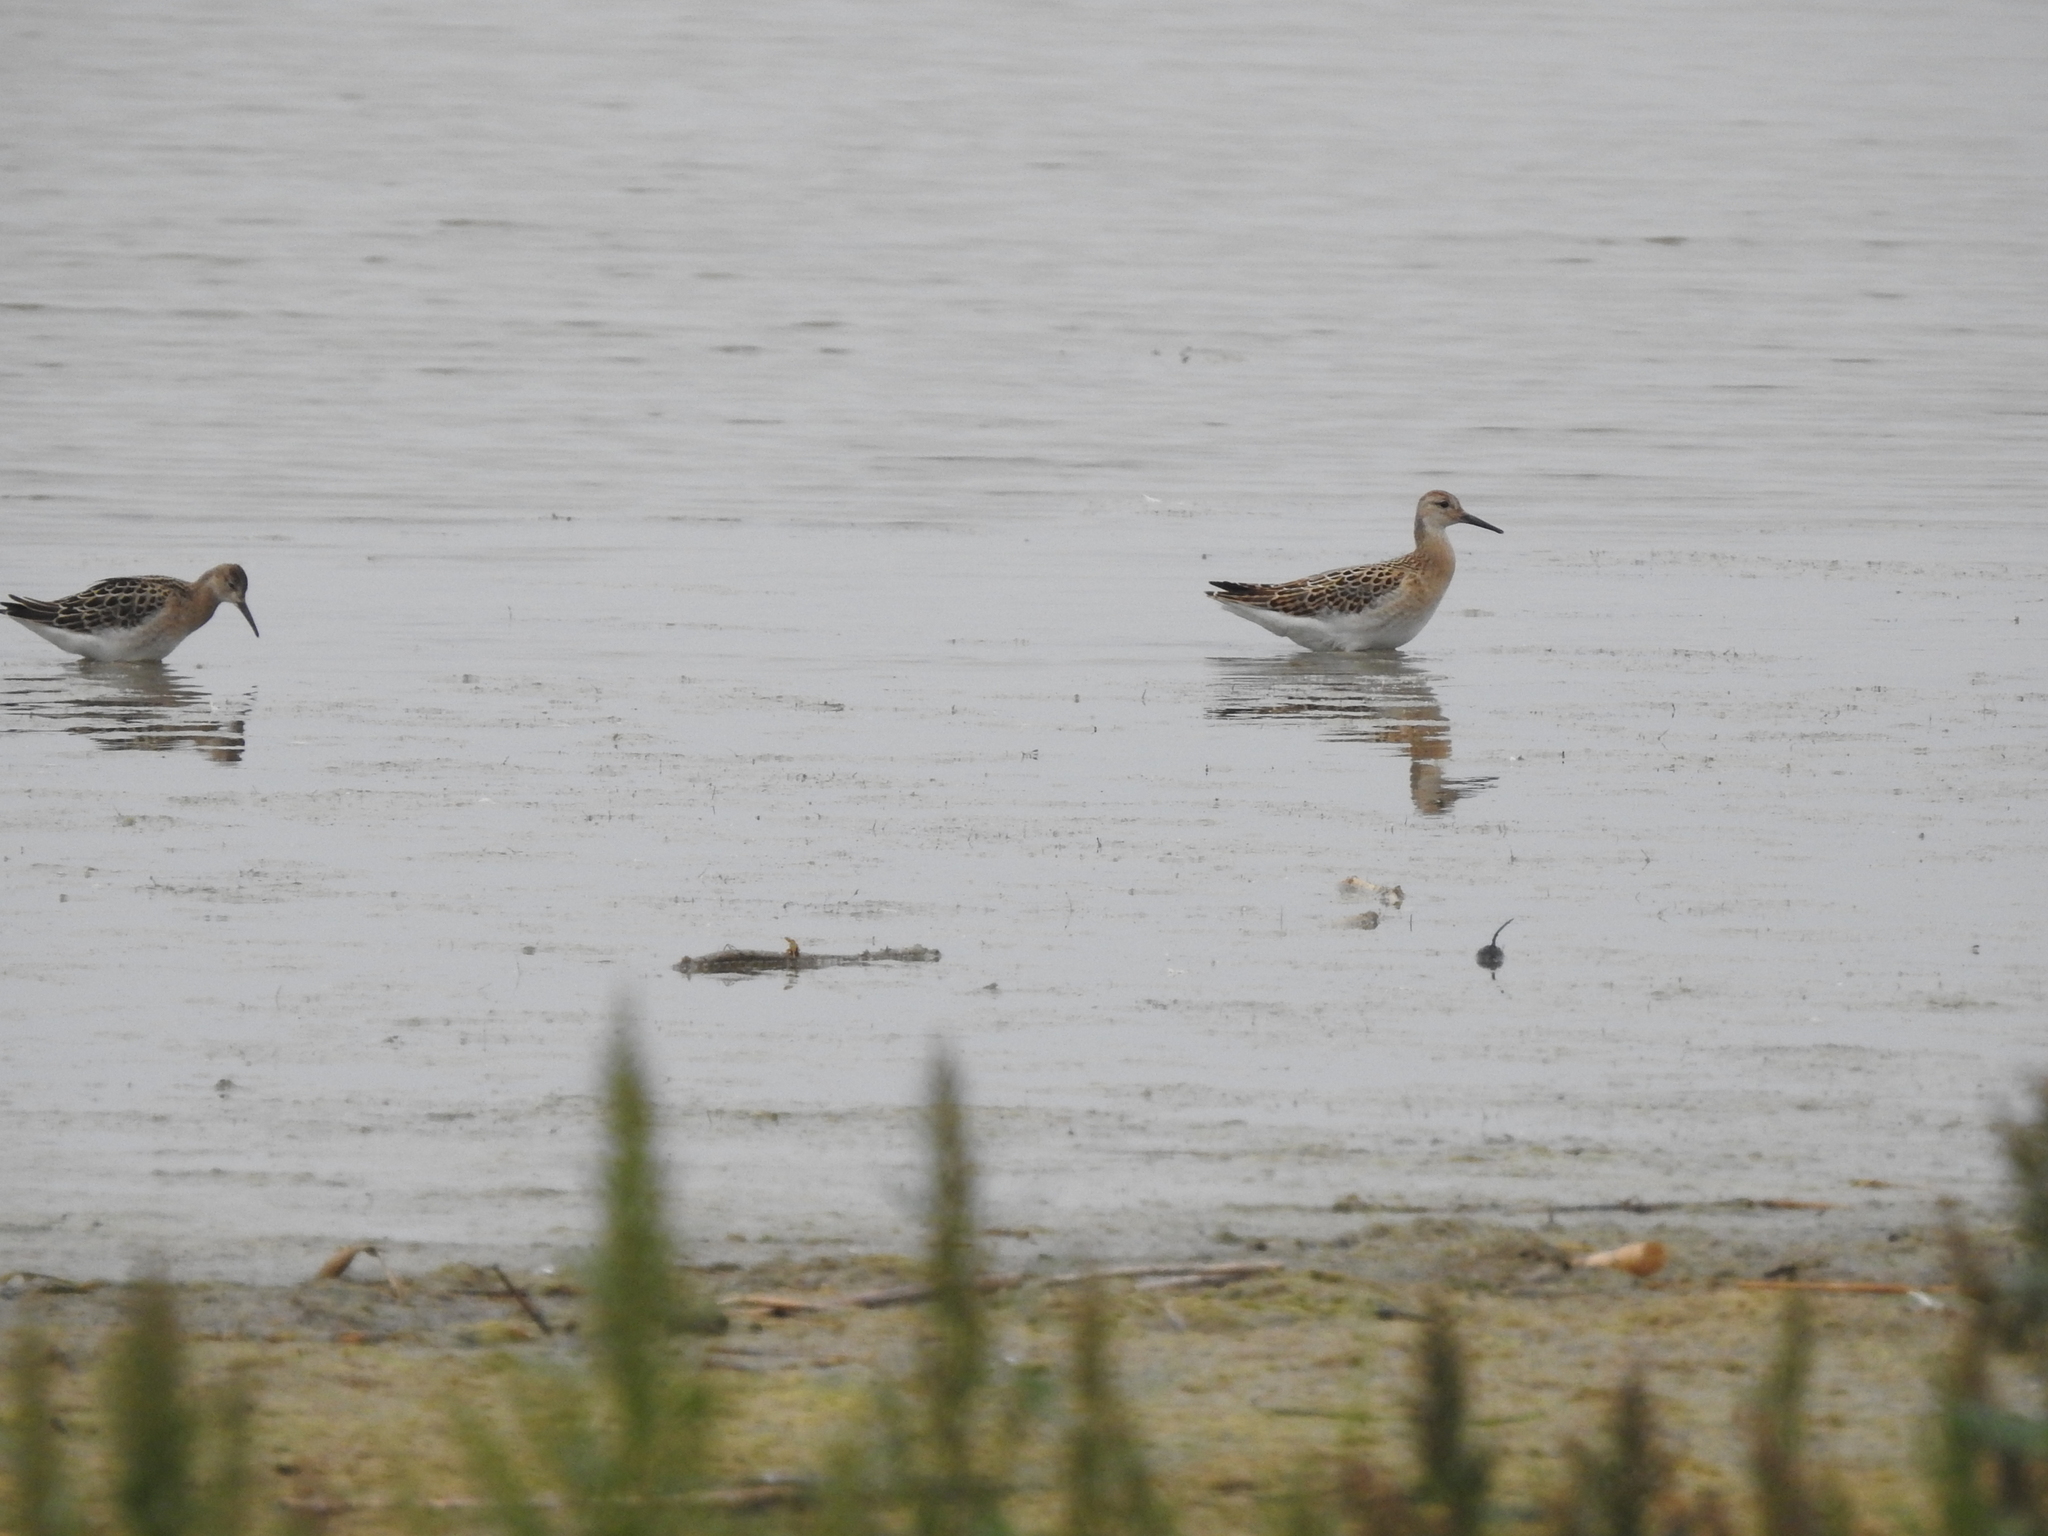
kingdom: Animalia
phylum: Chordata
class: Aves
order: Charadriiformes
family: Scolopacidae
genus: Calidris
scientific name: Calidris pugnax
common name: Ruff
